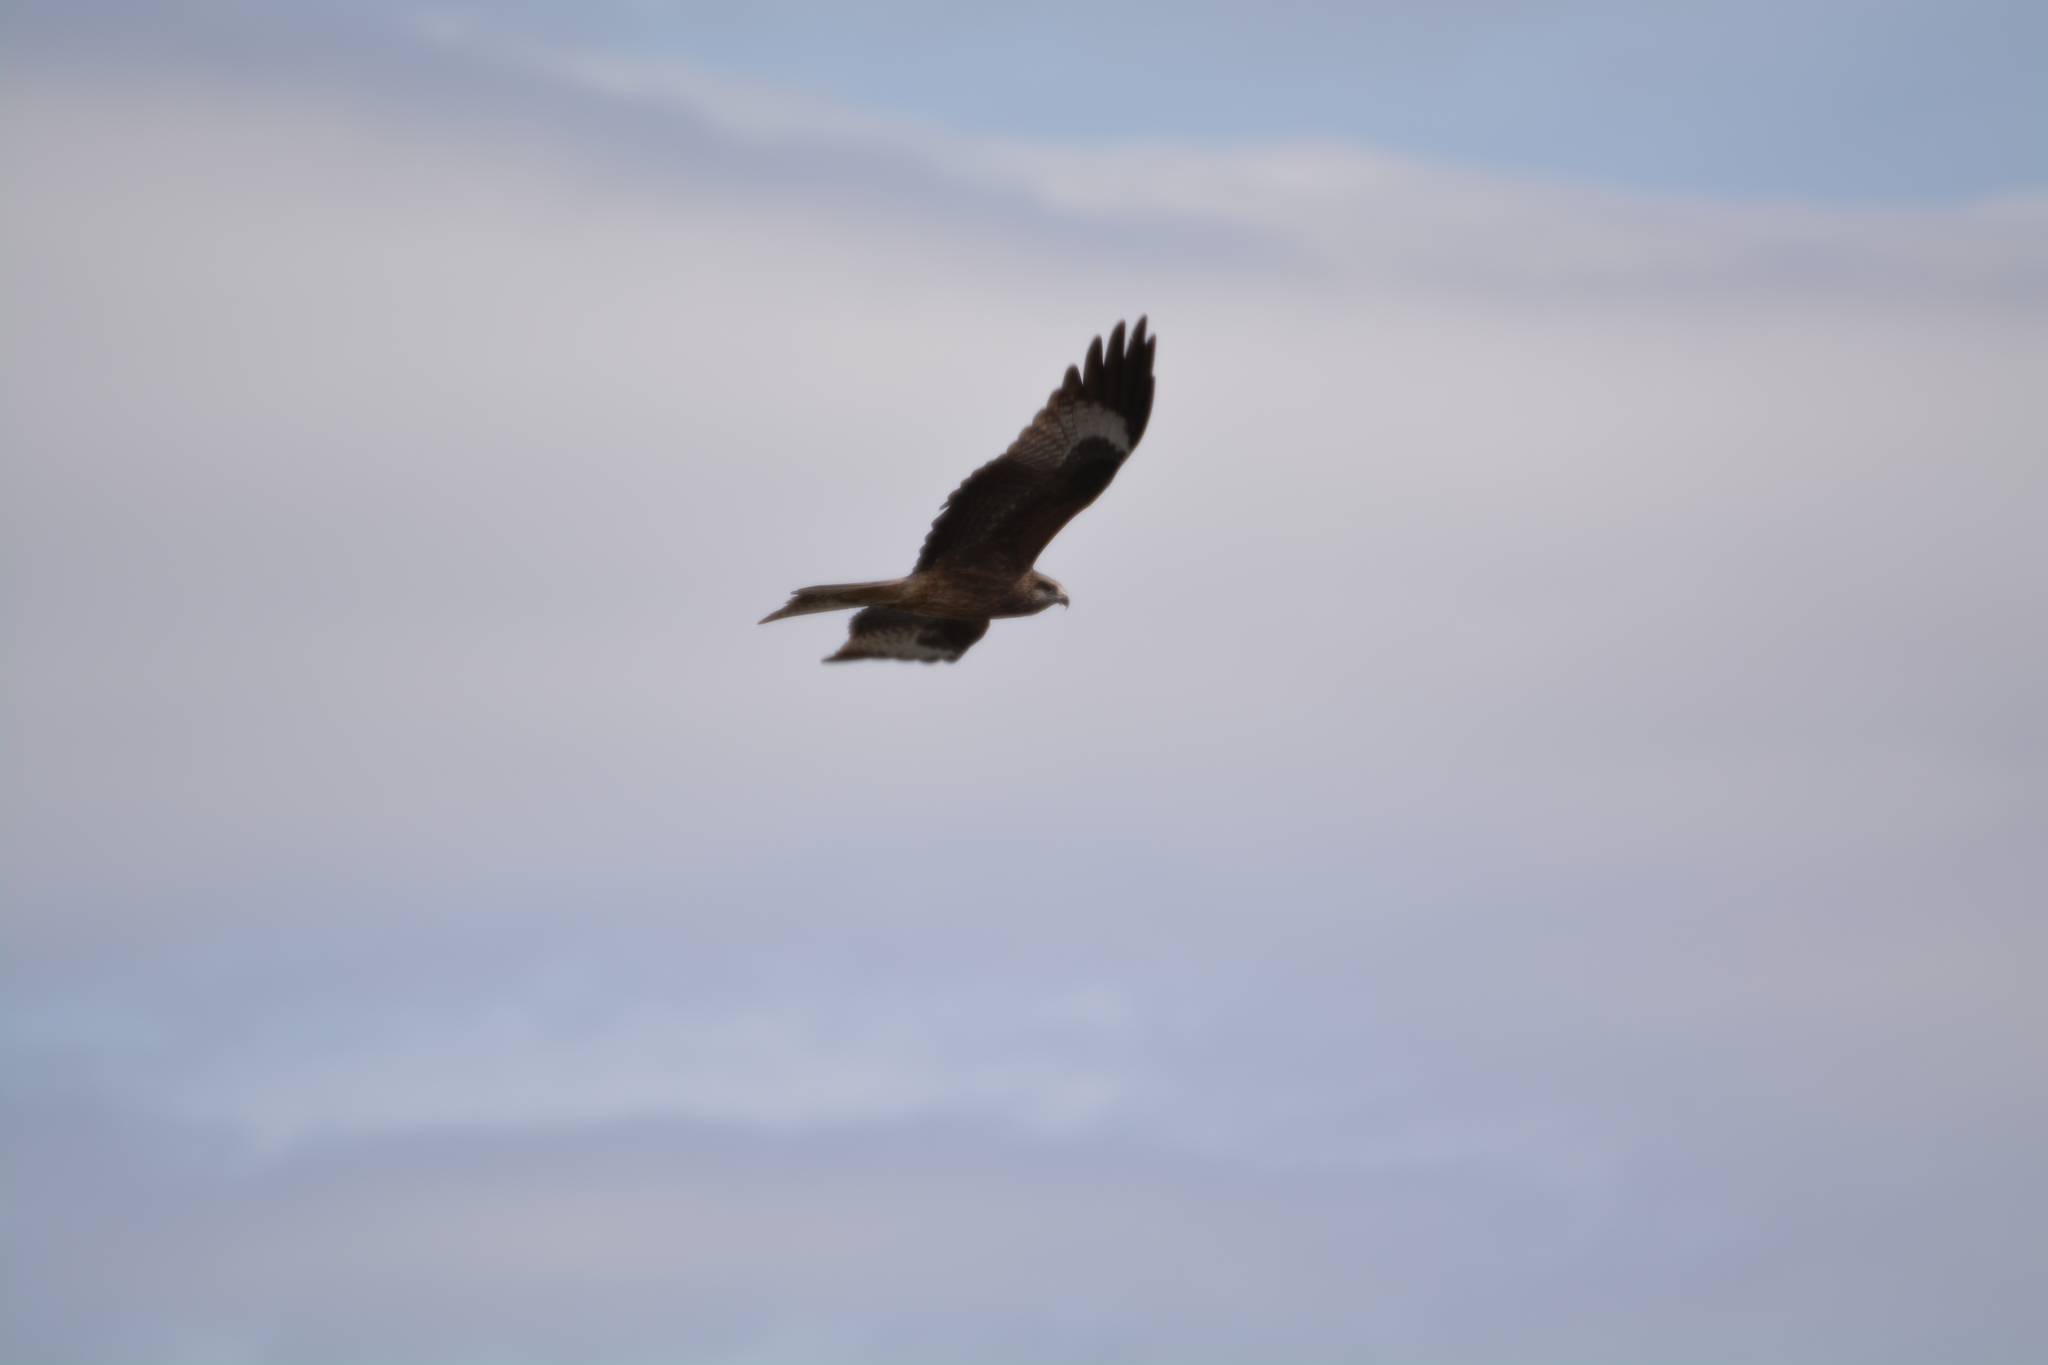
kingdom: Animalia
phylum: Chordata
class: Aves
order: Accipitriformes
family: Accipitridae
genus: Milvus
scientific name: Milvus migrans
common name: Black kite
